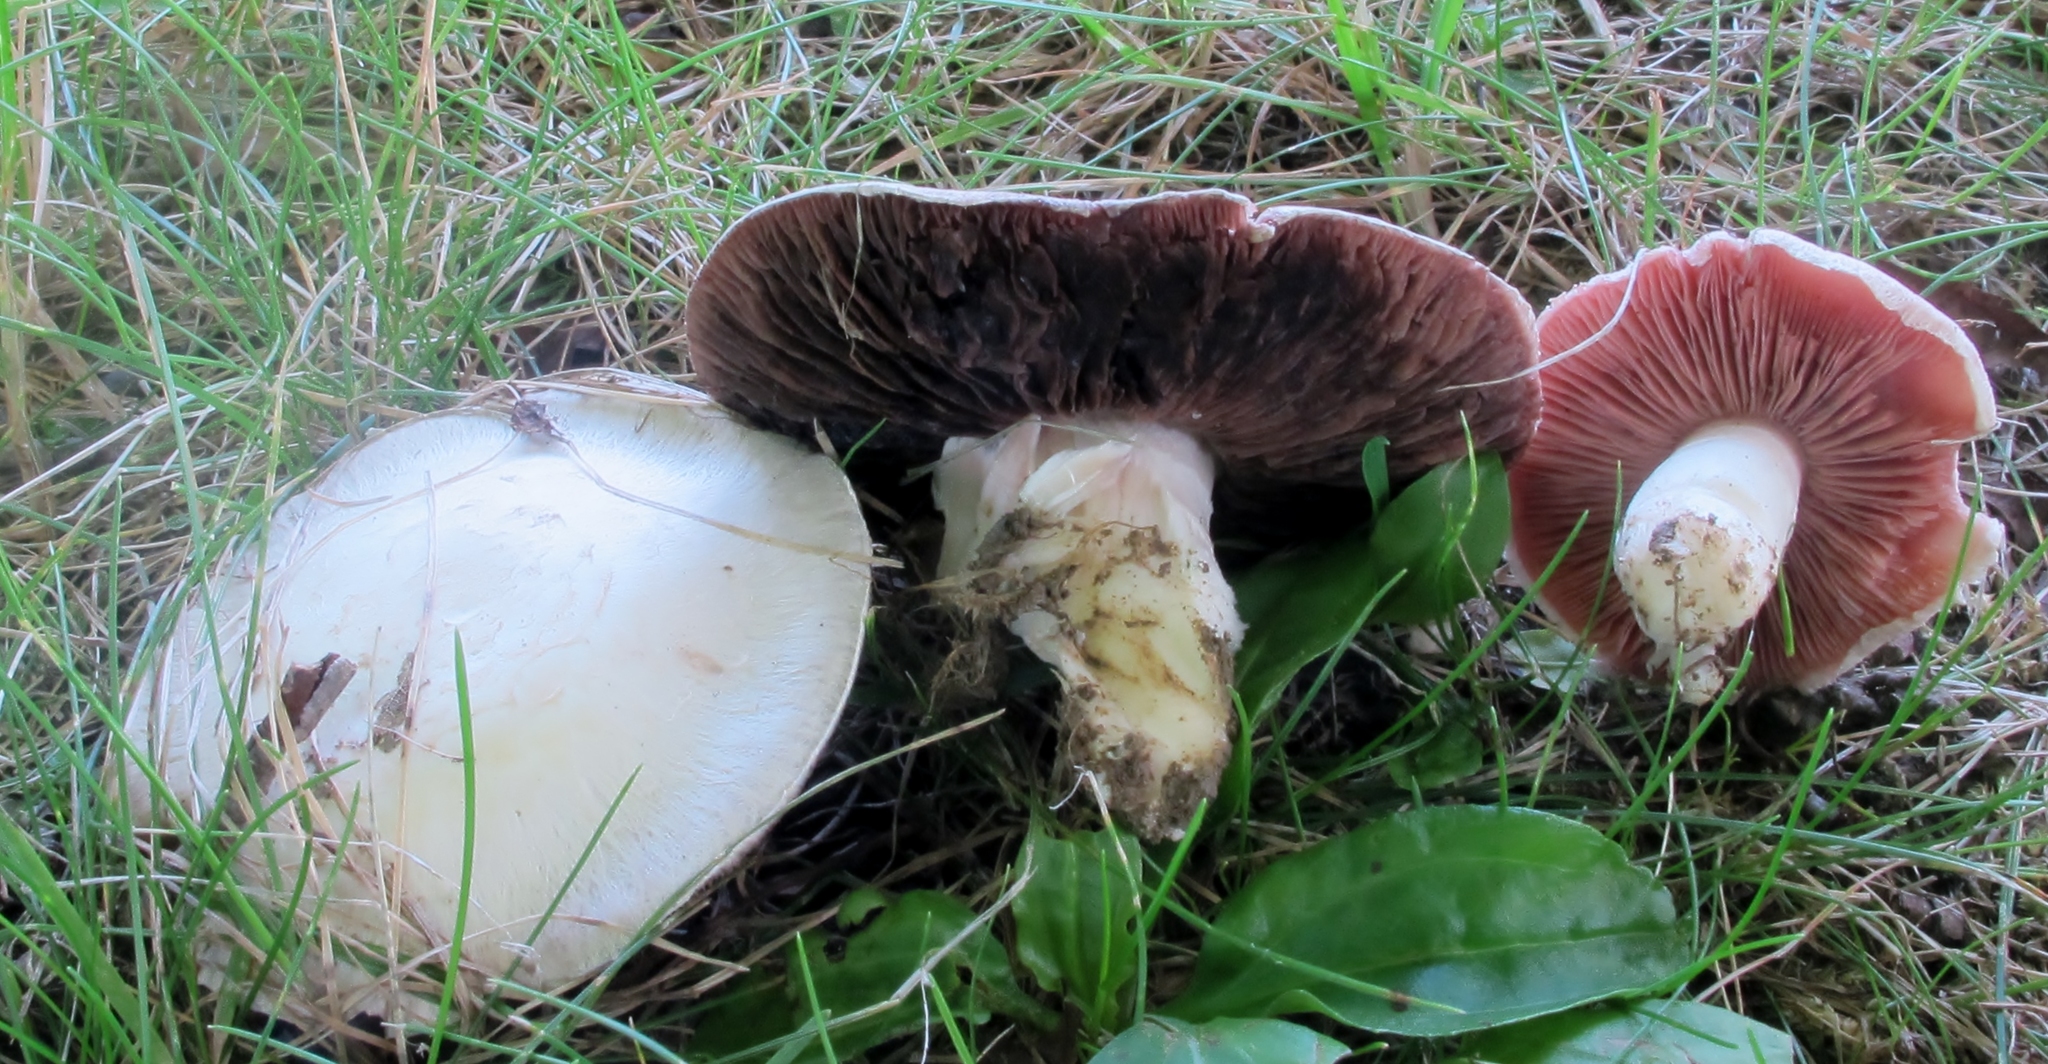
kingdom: Fungi
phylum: Basidiomycota
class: Agaricomycetes
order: Agaricales
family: Agaricaceae
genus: Agaricus
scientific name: Agaricus campestris
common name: Field mushroom
